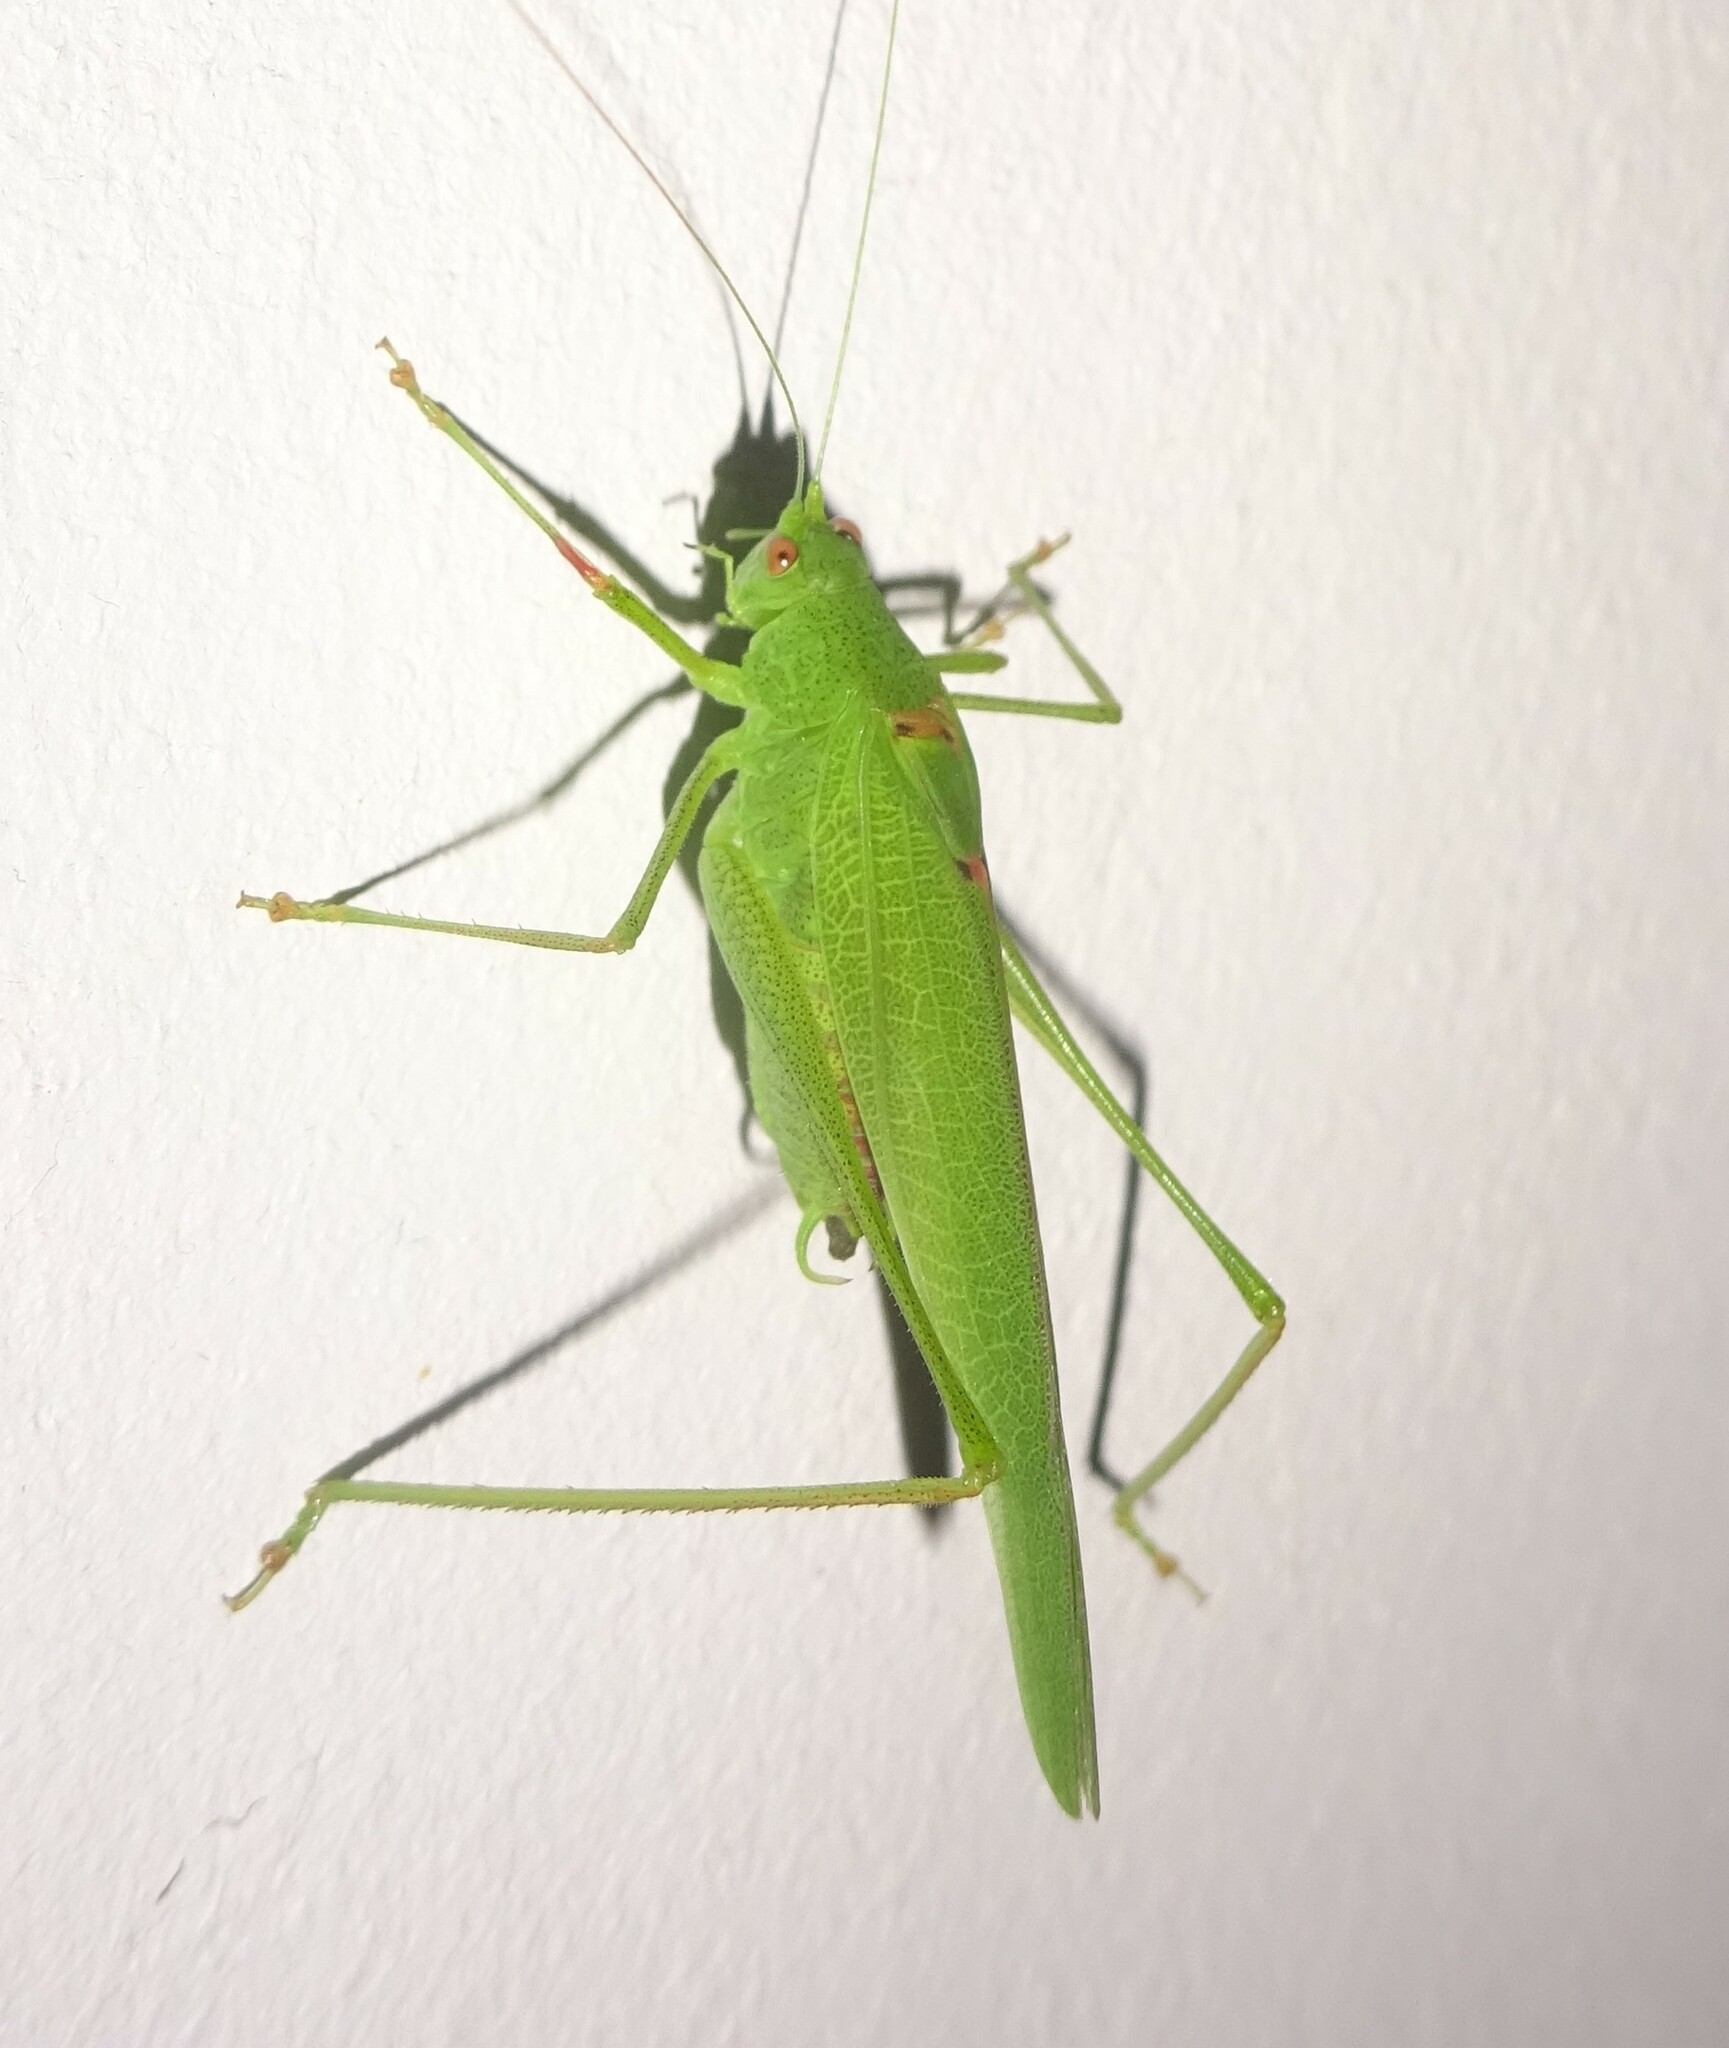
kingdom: Animalia
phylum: Arthropoda
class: Insecta
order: Orthoptera
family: Tettigoniidae
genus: Phaneroptera
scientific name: Phaneroptera nana
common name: Southern sickle bush-cricket
